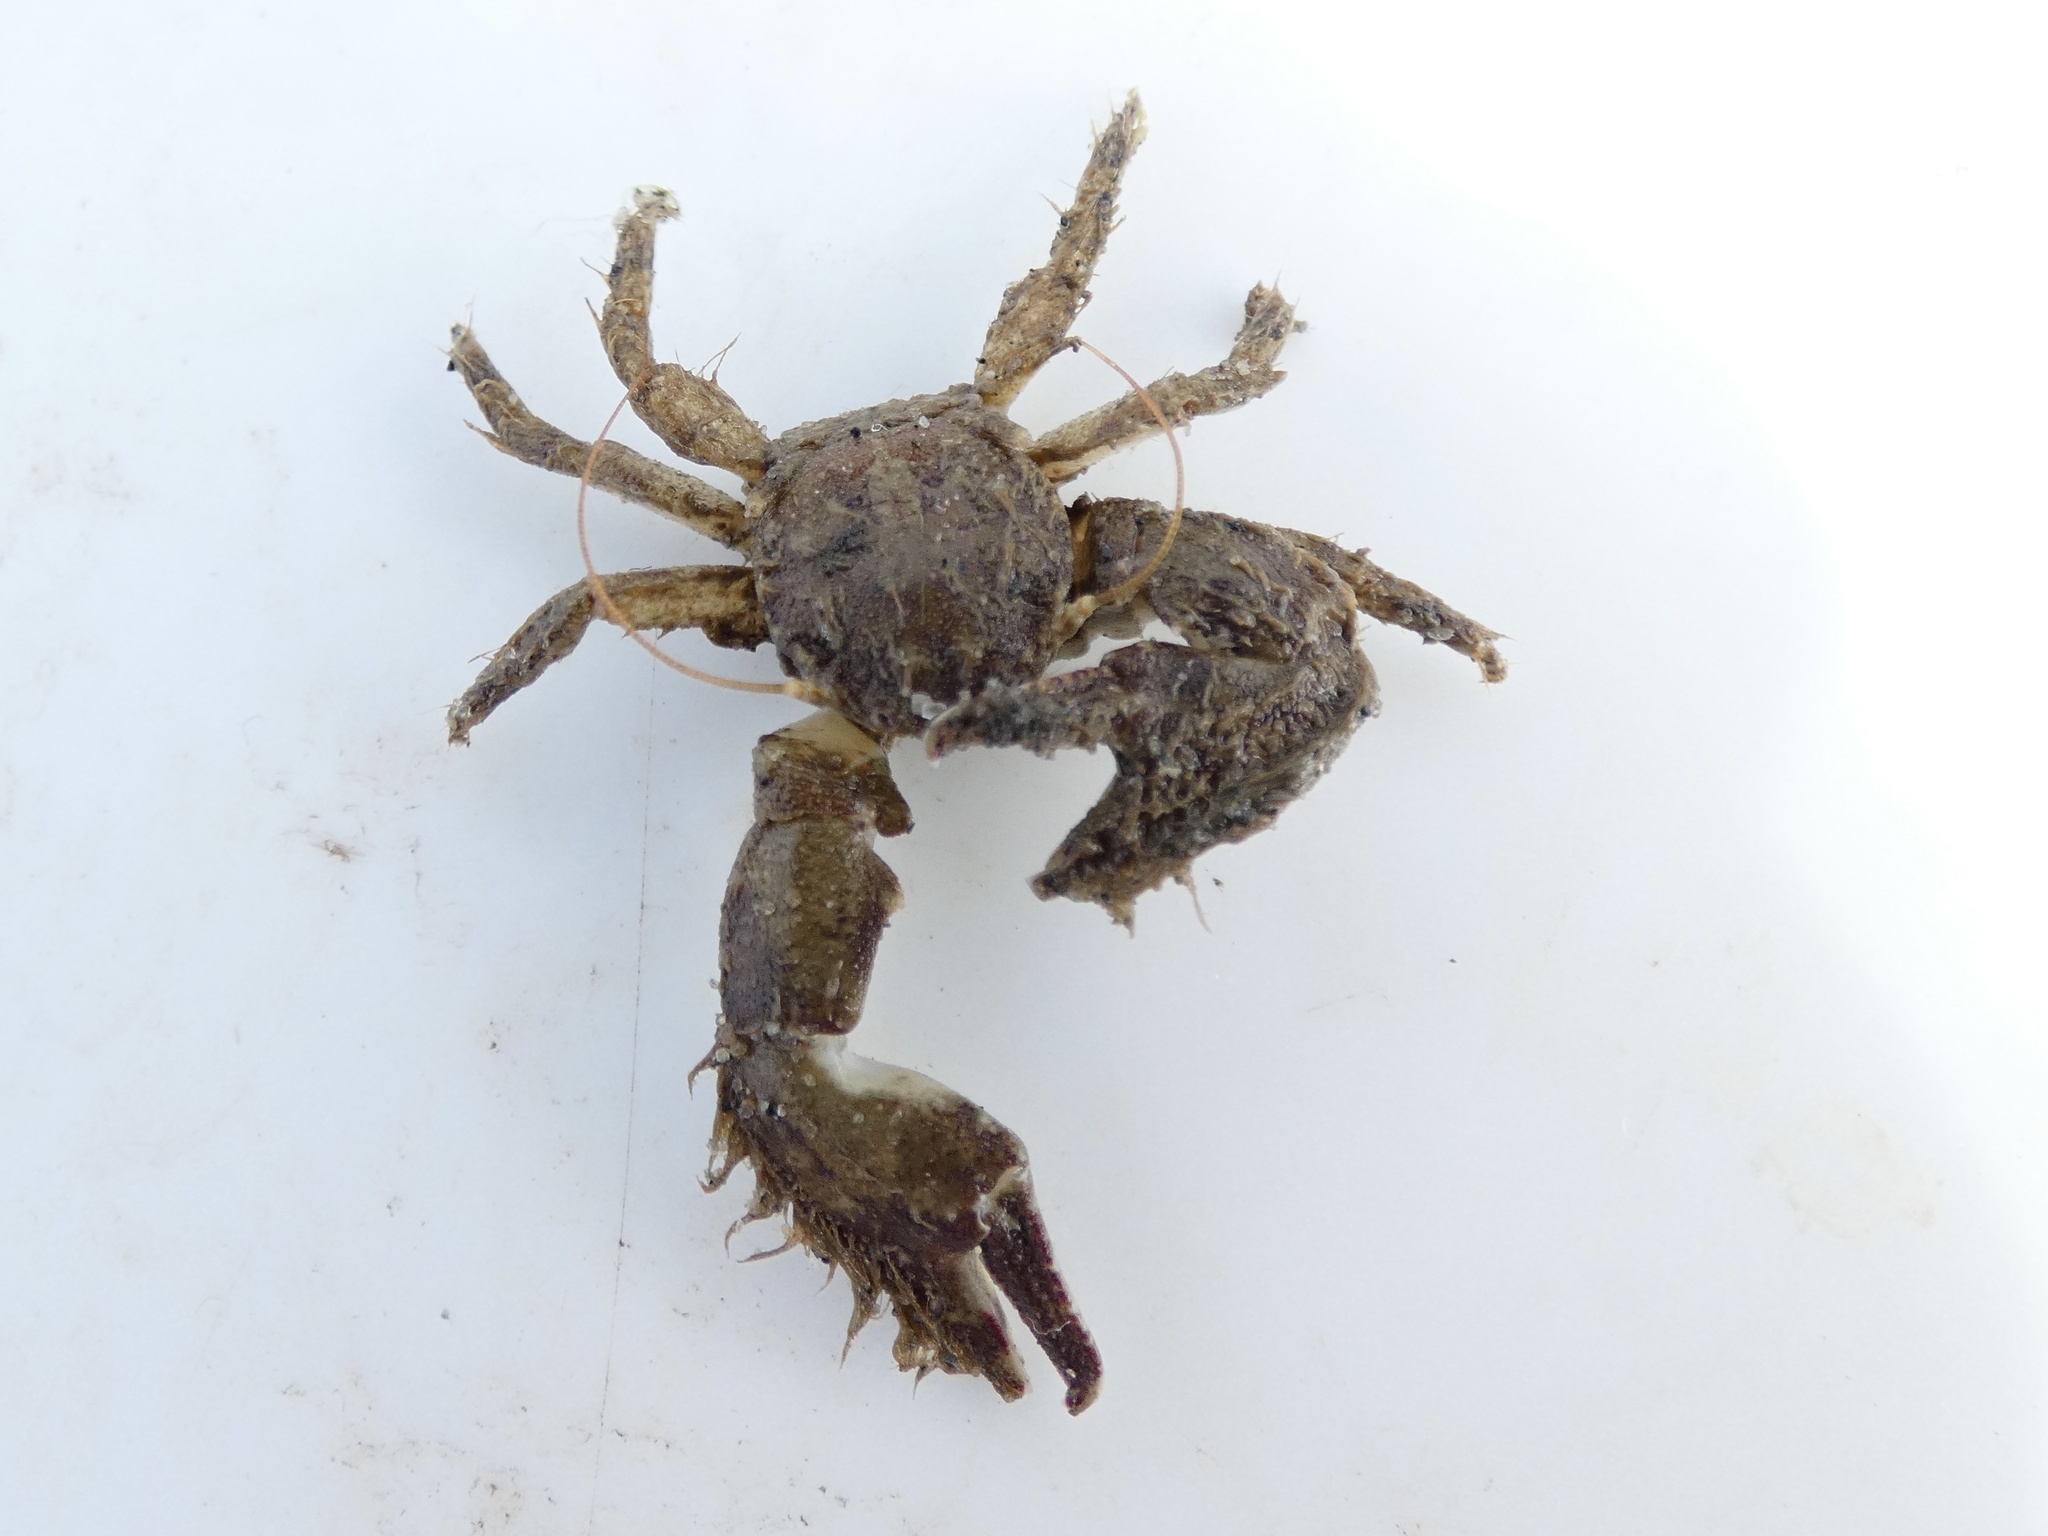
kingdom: Animalia
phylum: Arthropoda
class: Malacostraca
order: Decapoda
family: Porcellanidae
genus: Porcellana
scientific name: Porcellana platycheles
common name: Porcelain crab
